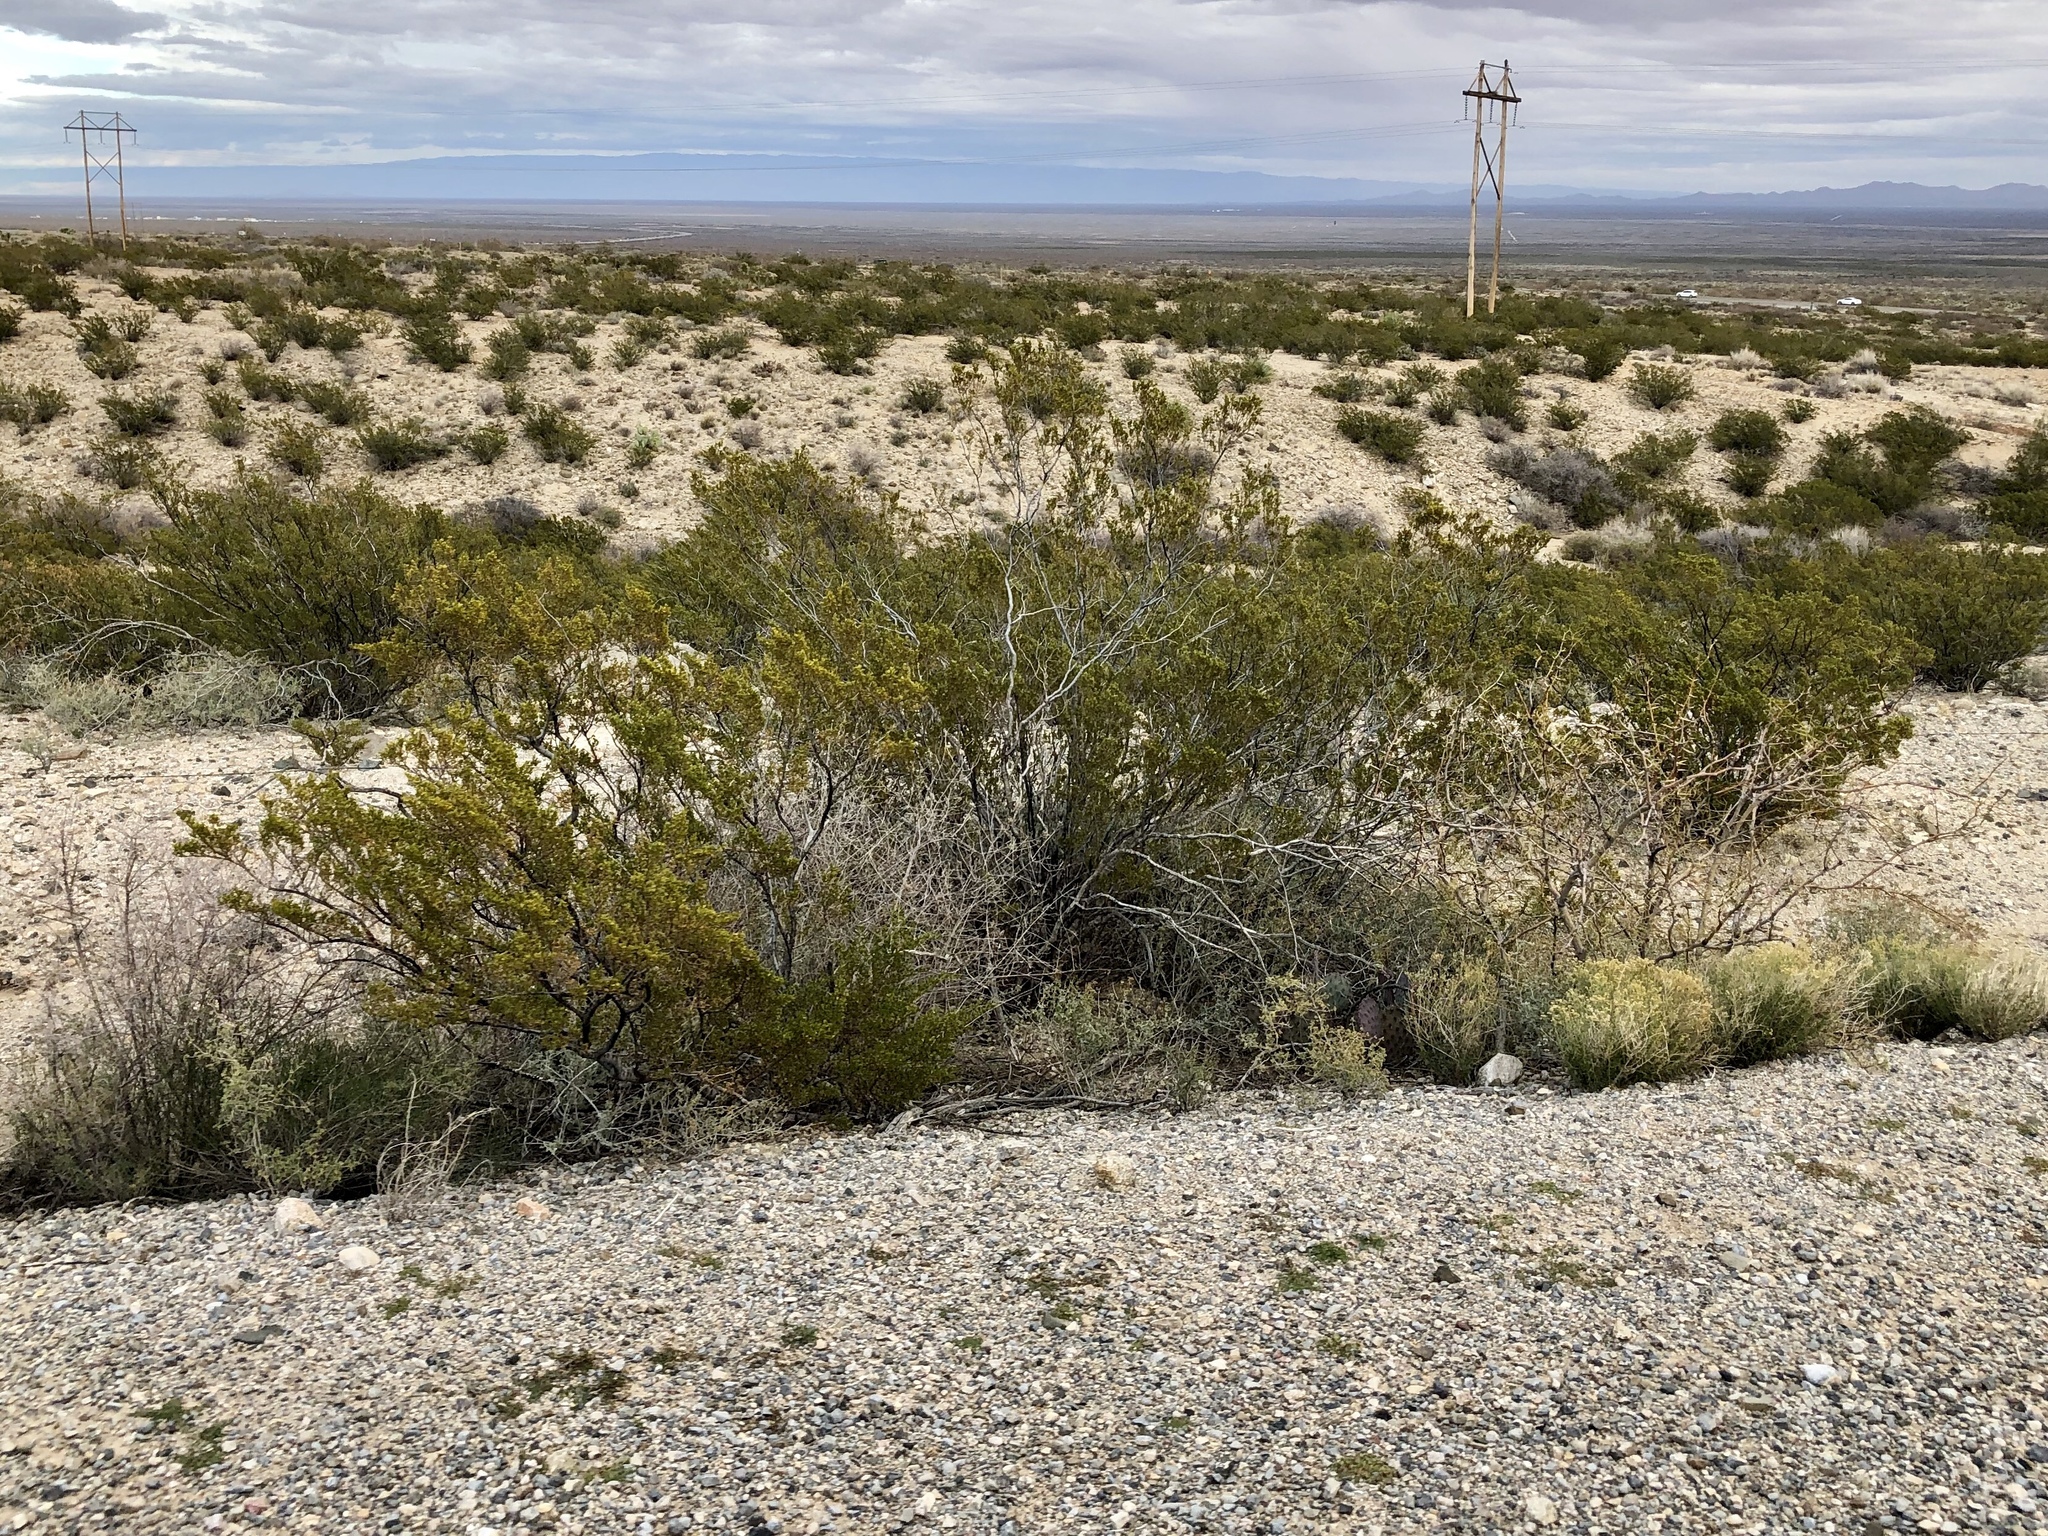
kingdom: Plantae
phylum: Tracheophyta
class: Magnoliopsida
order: Zygophyllales
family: Zygophyllaceae
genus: Larrea
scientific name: Larrea tridentata
